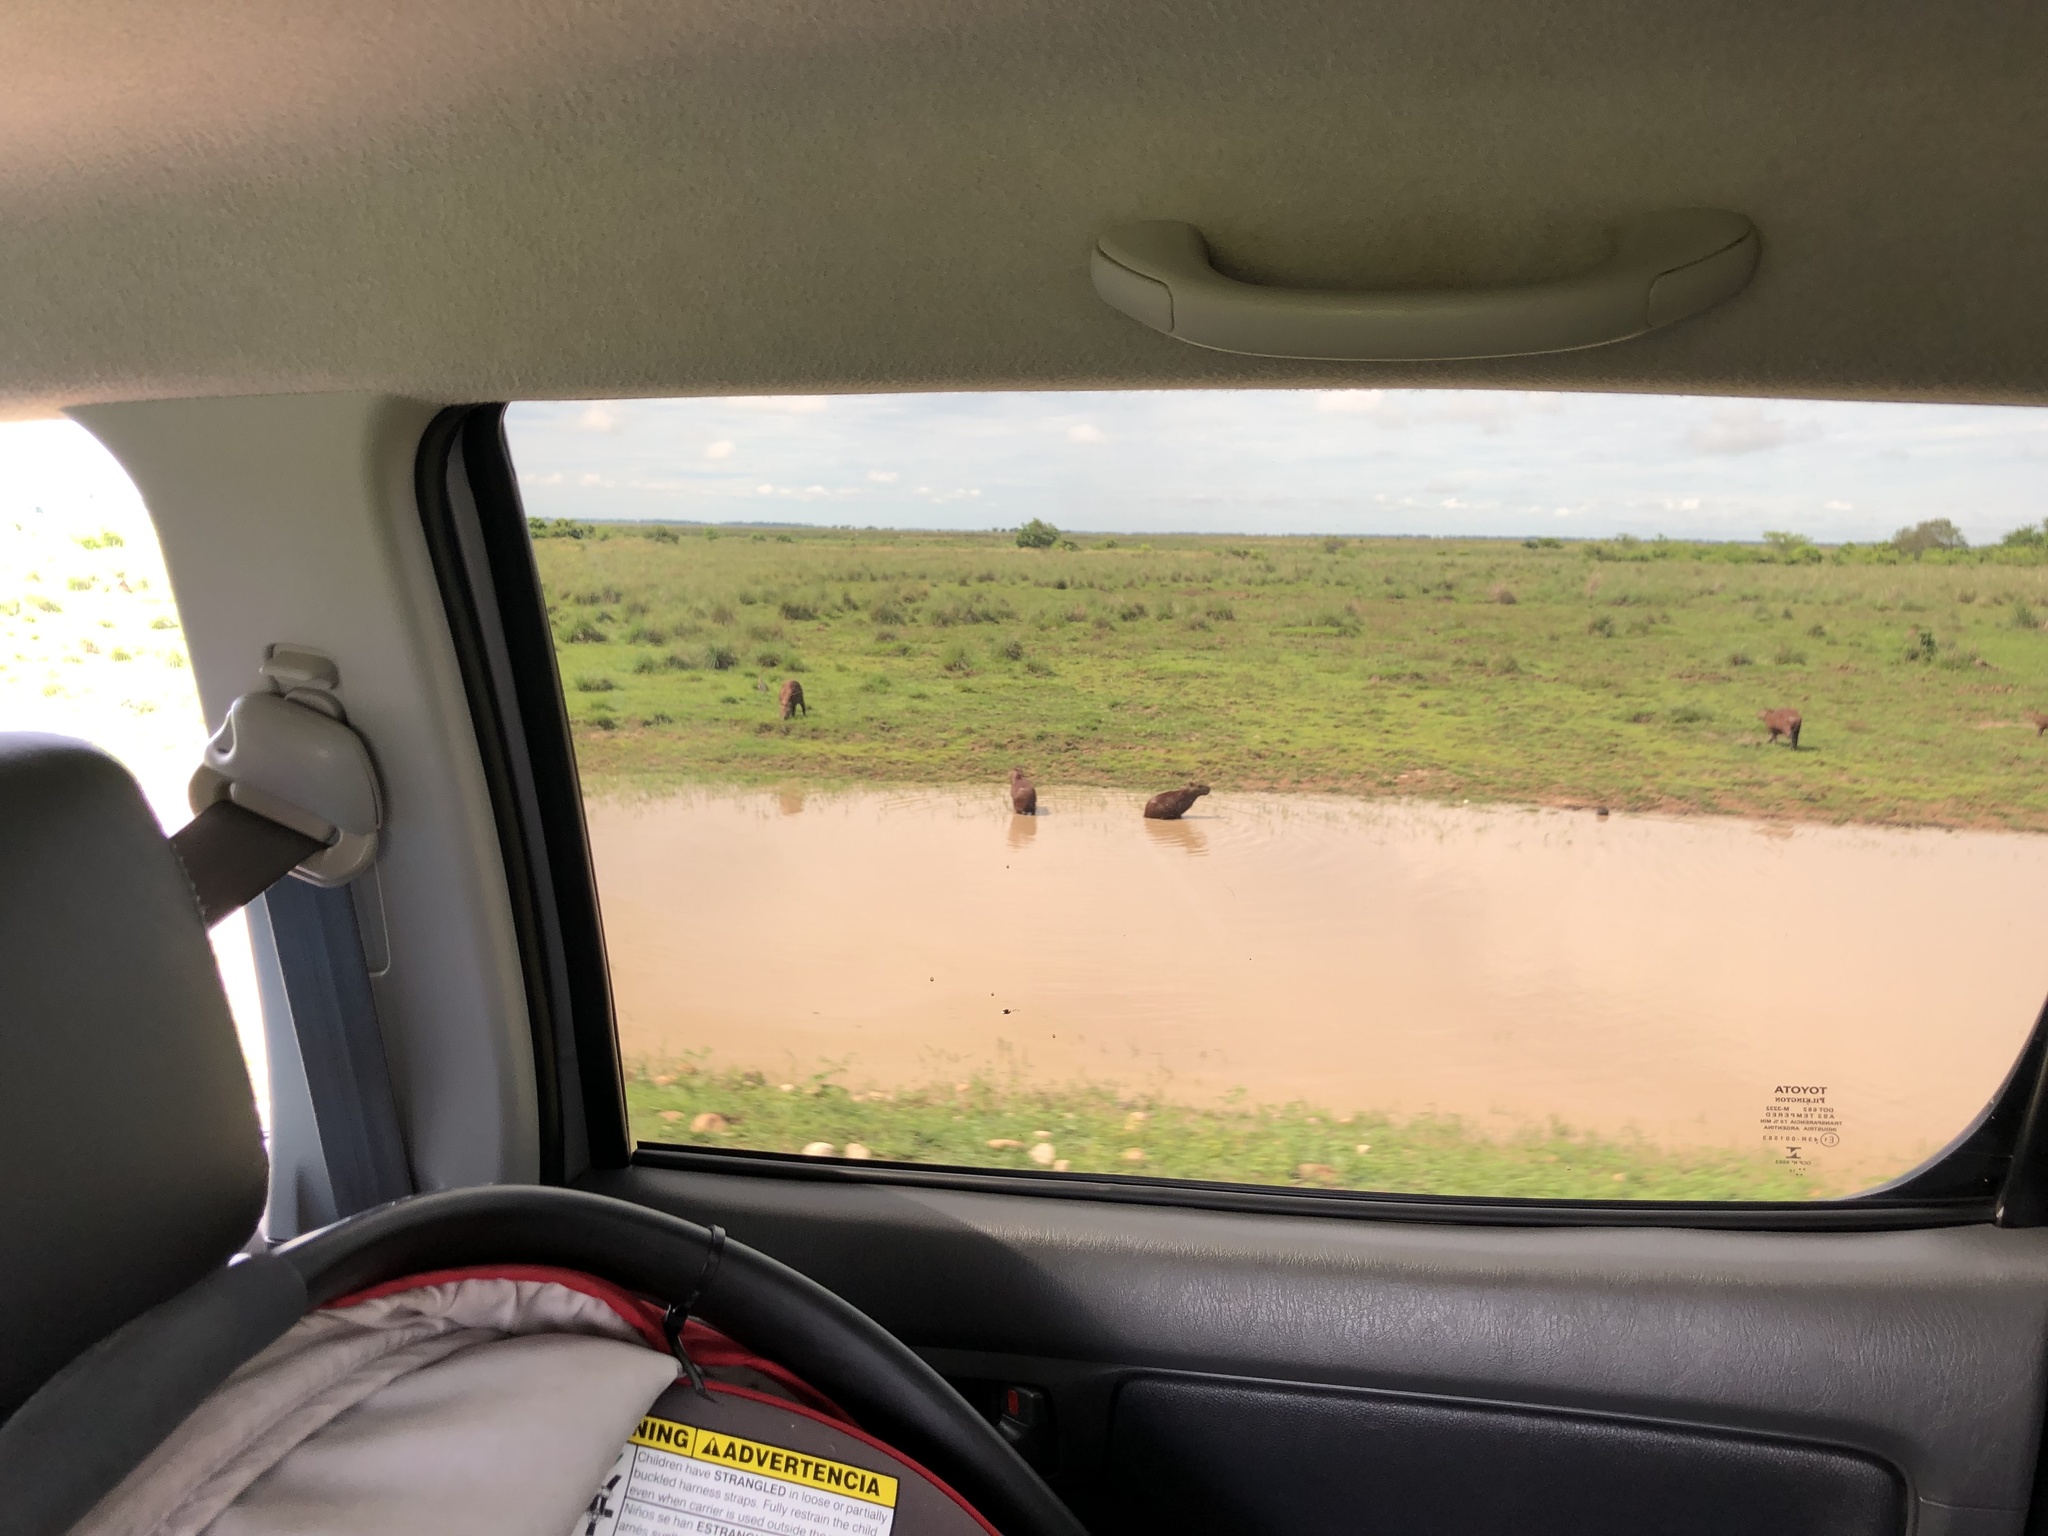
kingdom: Animalia
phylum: Chordata
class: Mammalia
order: Rodentia
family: Caviidae
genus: Hydrochoerus
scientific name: Hydrochoerus hydrochaeris
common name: Capybara
